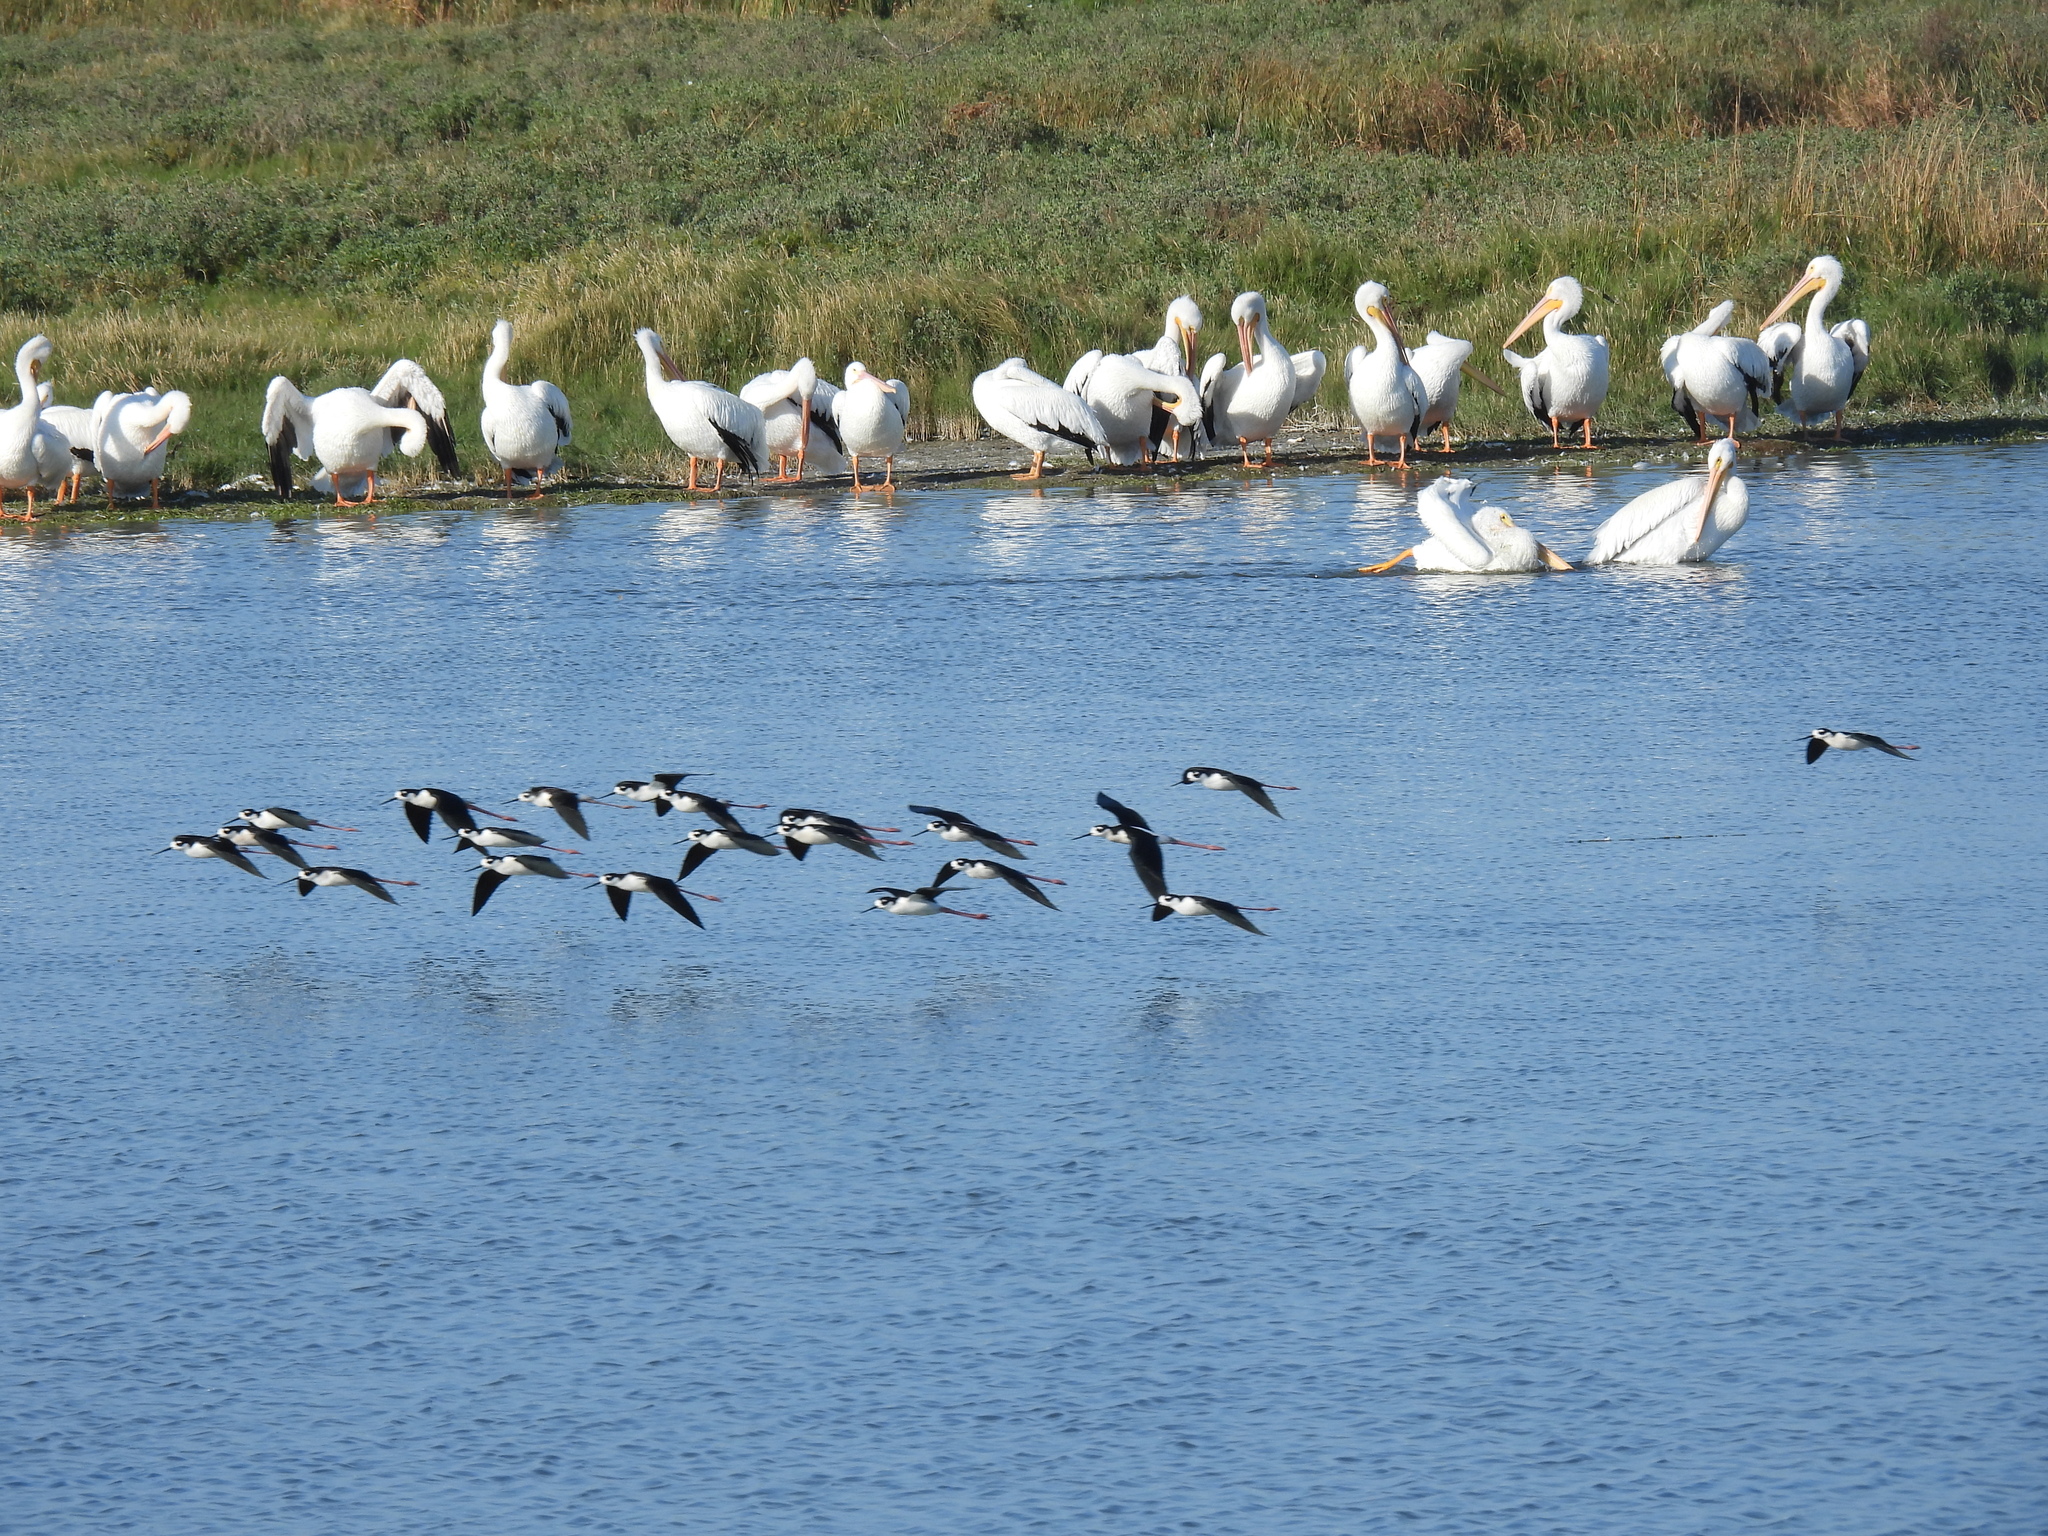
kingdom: Animalia
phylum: Chordata
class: Aves
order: Charadriiformes
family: Recurvirostridae
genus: Himantopus
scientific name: Himantopus mexicanus
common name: Black-necked stilt
